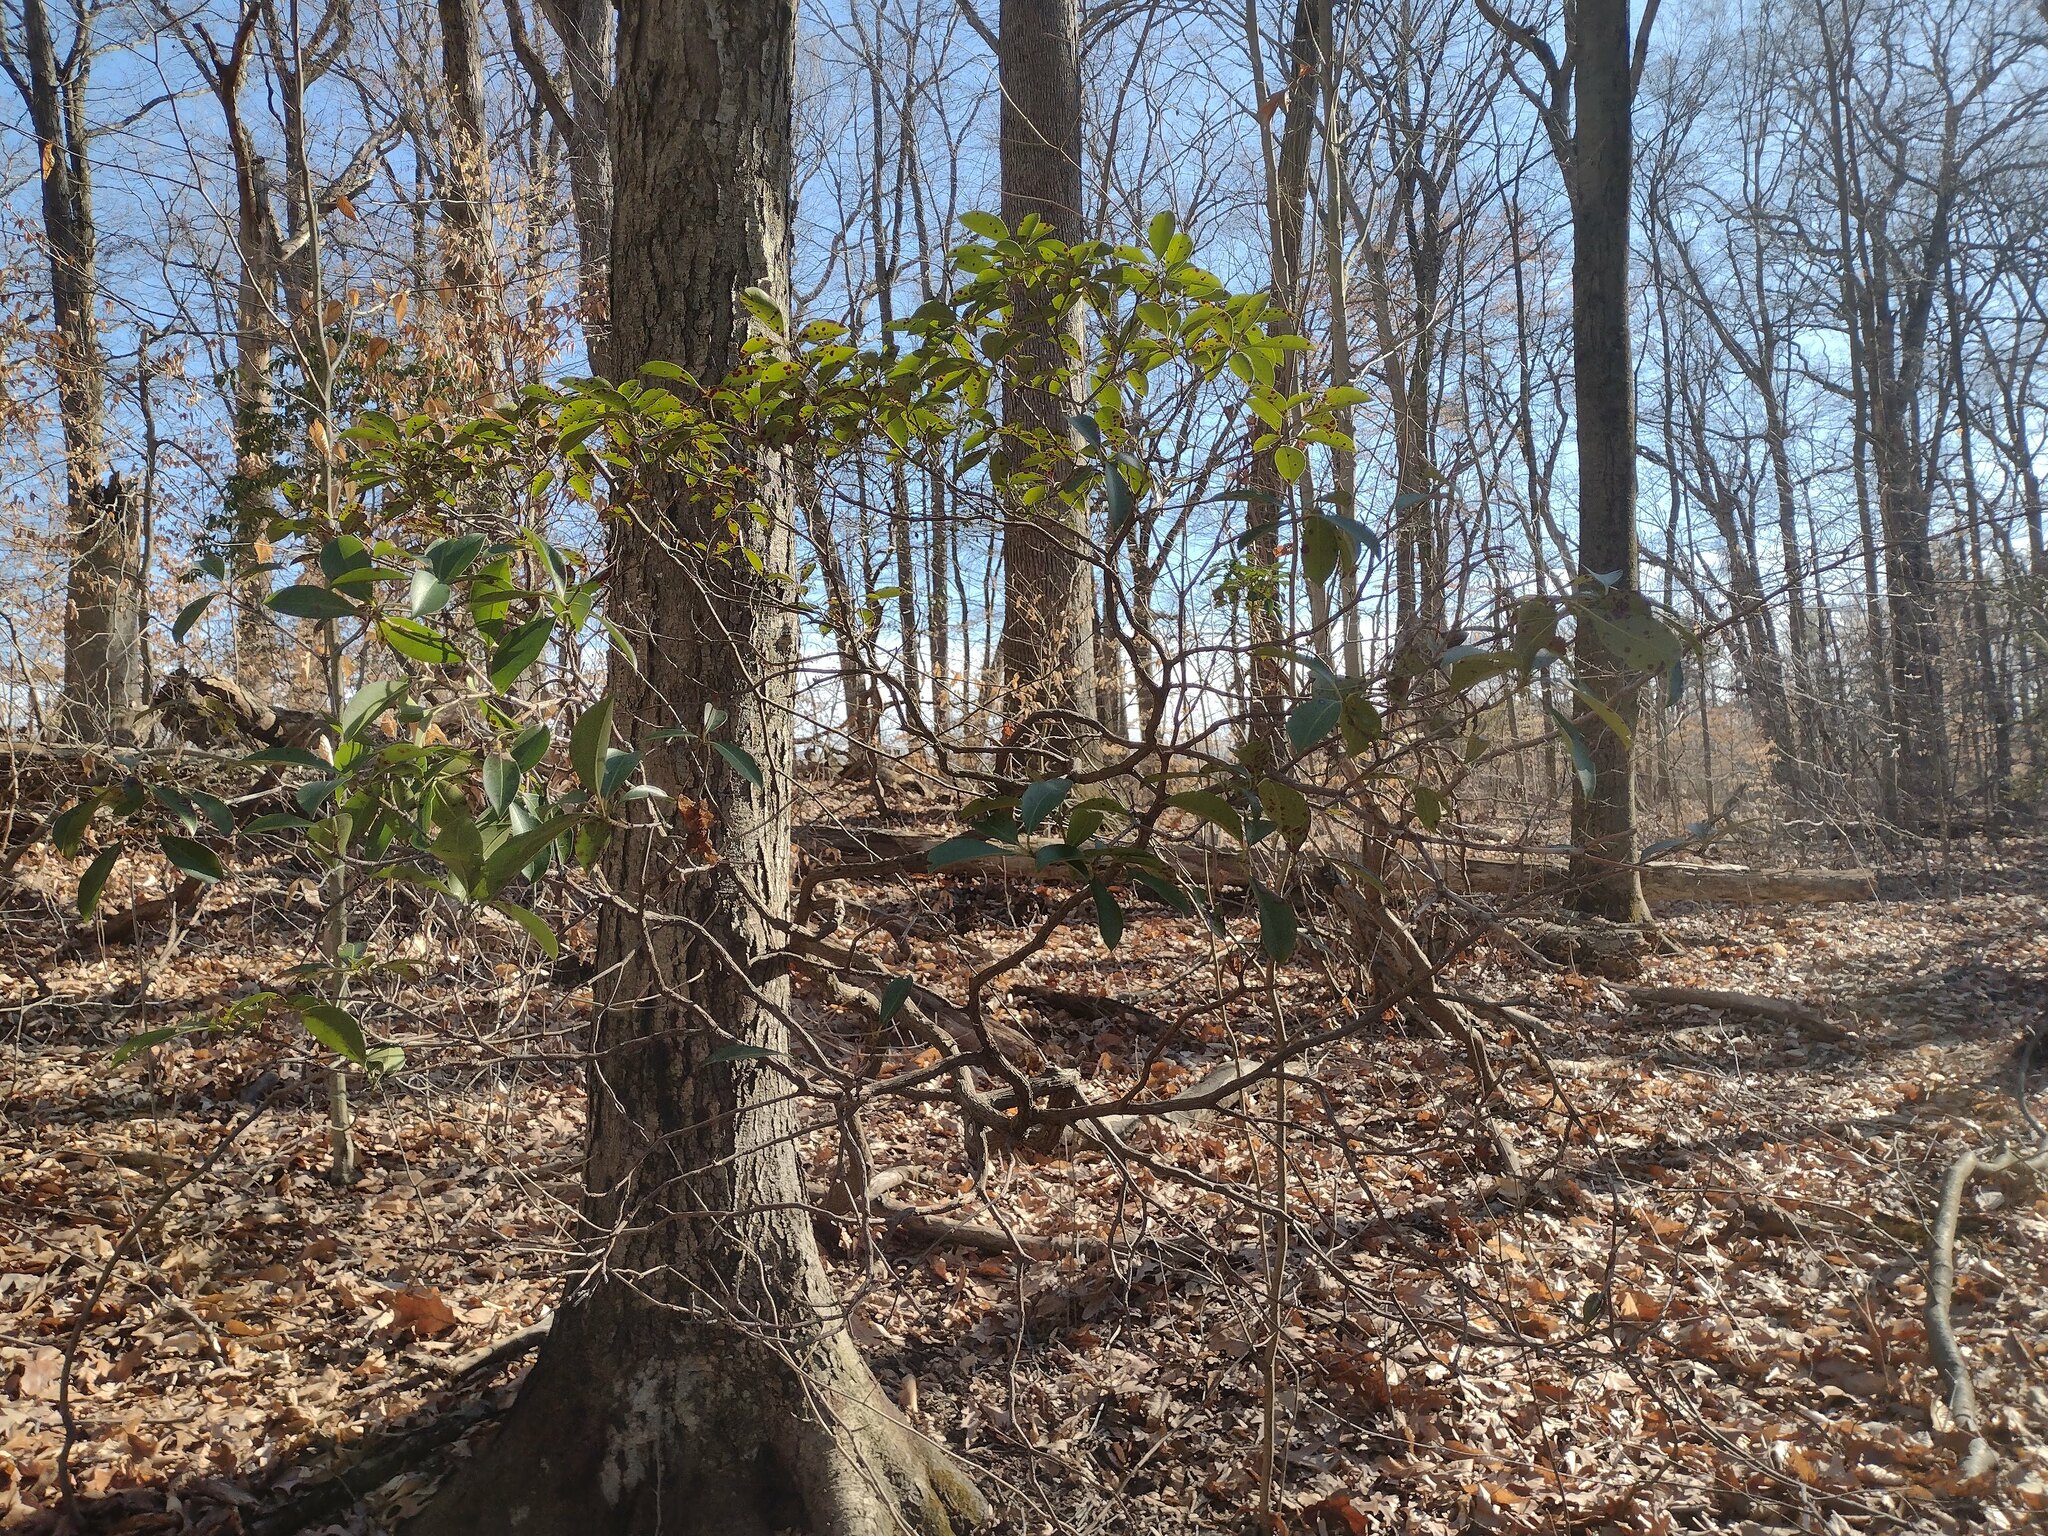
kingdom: Plantae
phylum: Tracheophyta
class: Magnoliopsida
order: Ericales
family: Ericaceae
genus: Kalmia
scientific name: Kalmia latifolia
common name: Mountain-laurel
